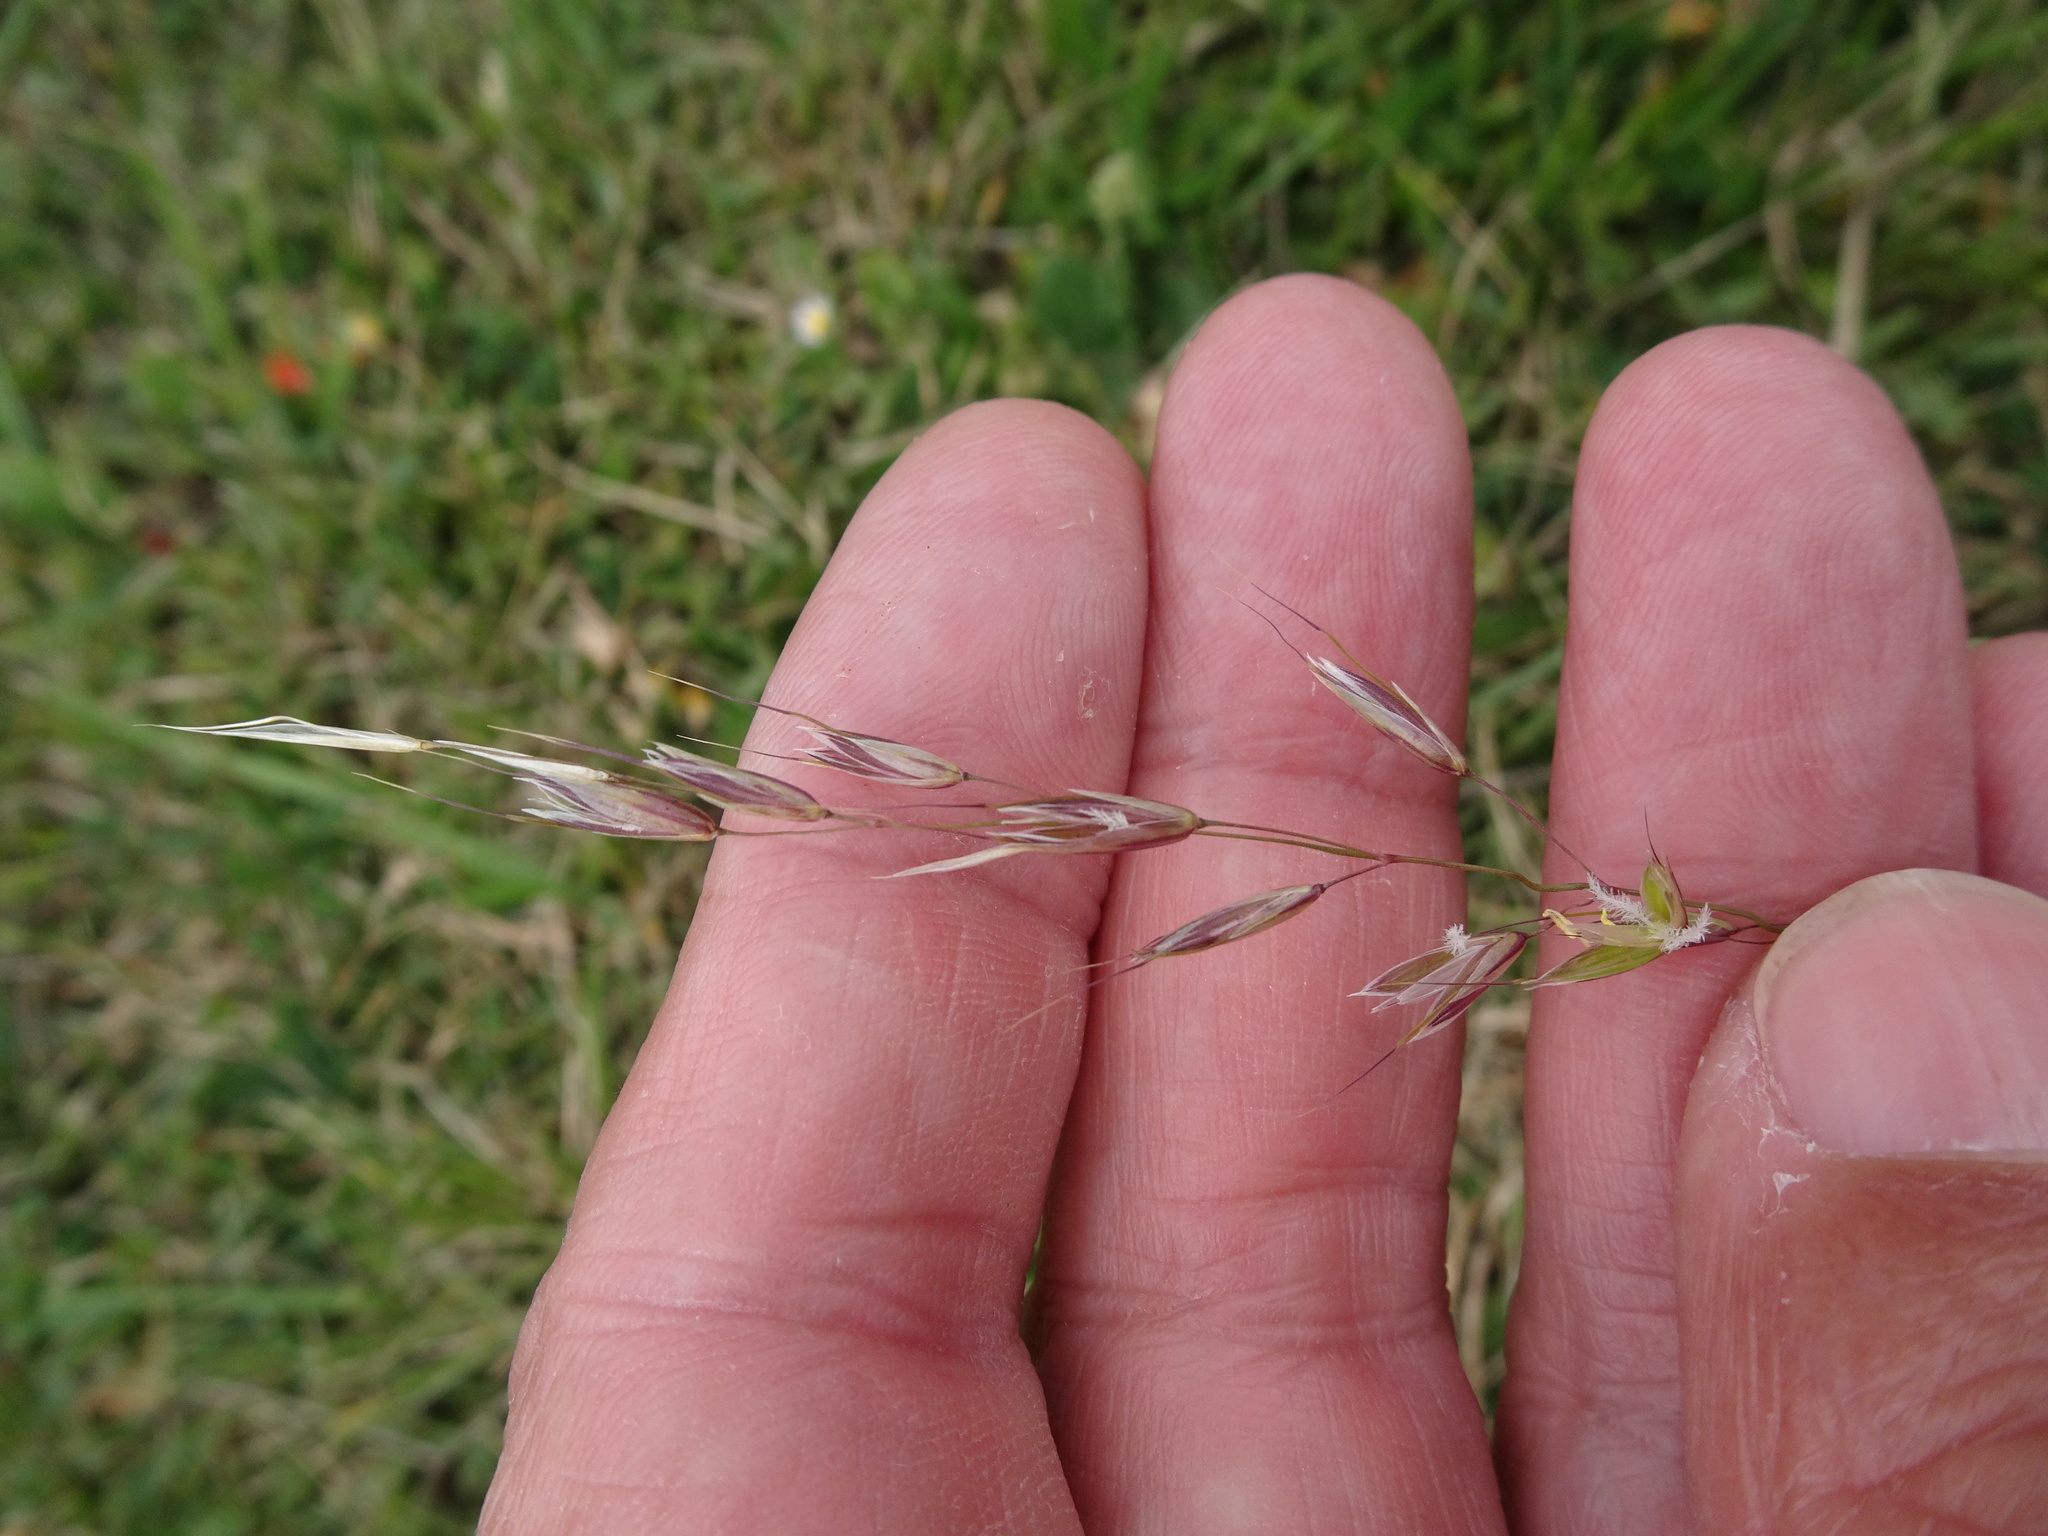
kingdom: Plantae
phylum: Tracheophyta
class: Liliopsida
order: Poales
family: Poaceae
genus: Arrhenatherum
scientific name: Arrhenatherum elatius
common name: Tall oatgrass
